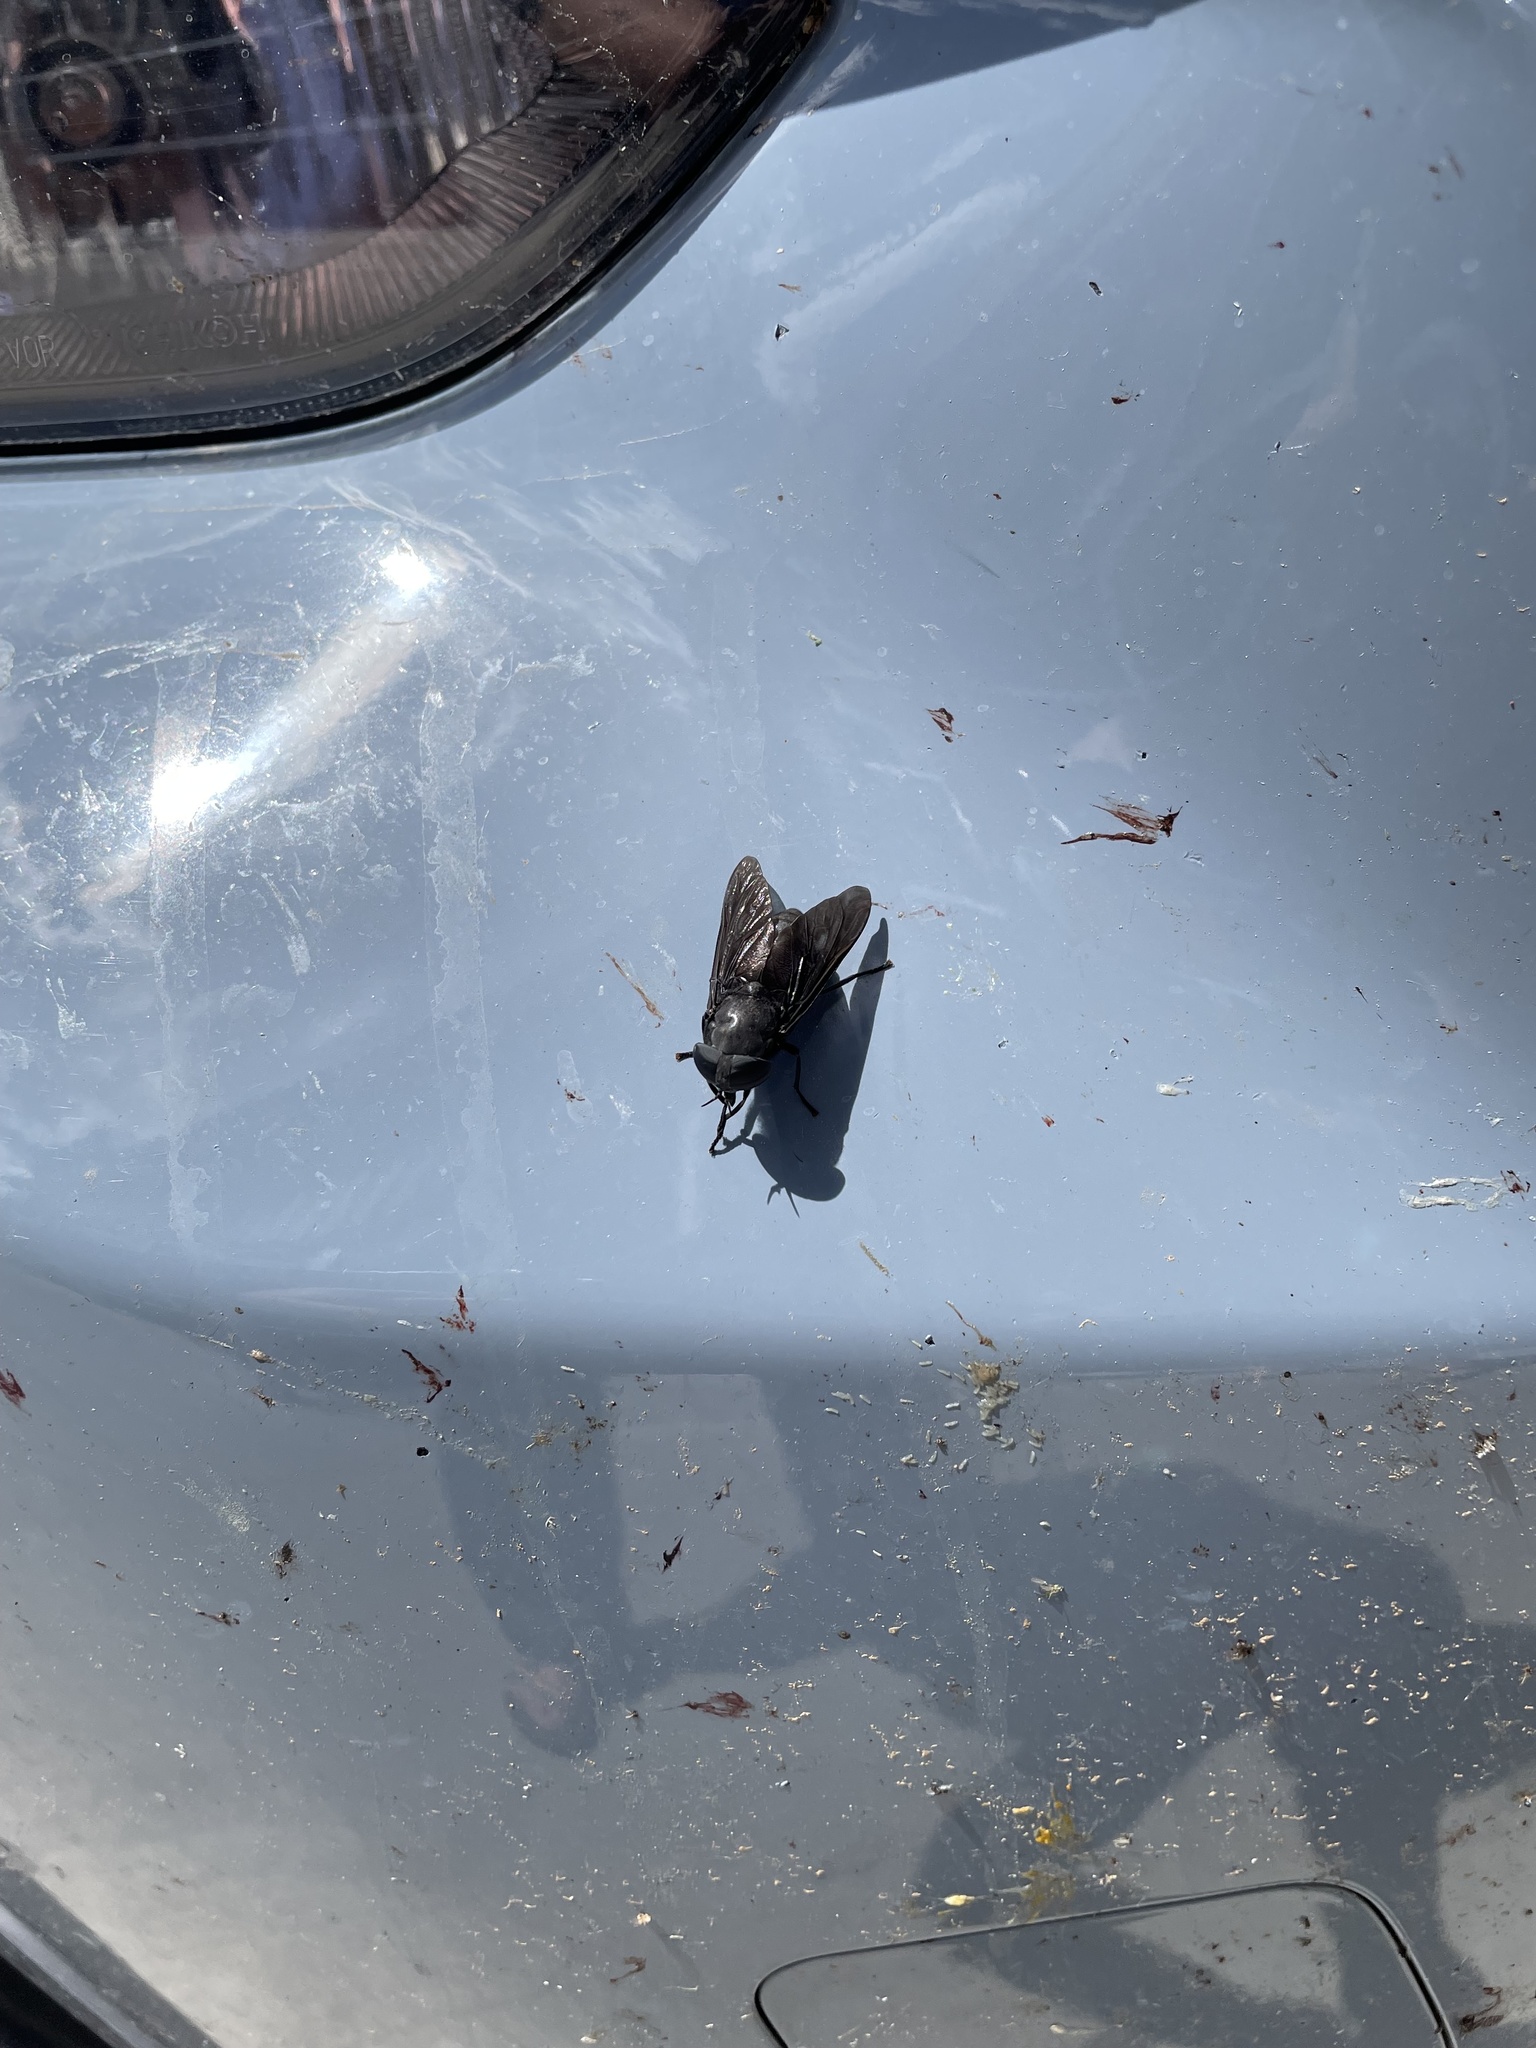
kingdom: Animalia
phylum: Arthropoda
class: Insecta
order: Diptera
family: Tabanidae
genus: Tabanus
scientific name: Tabanus atratus
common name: Black horse fly
